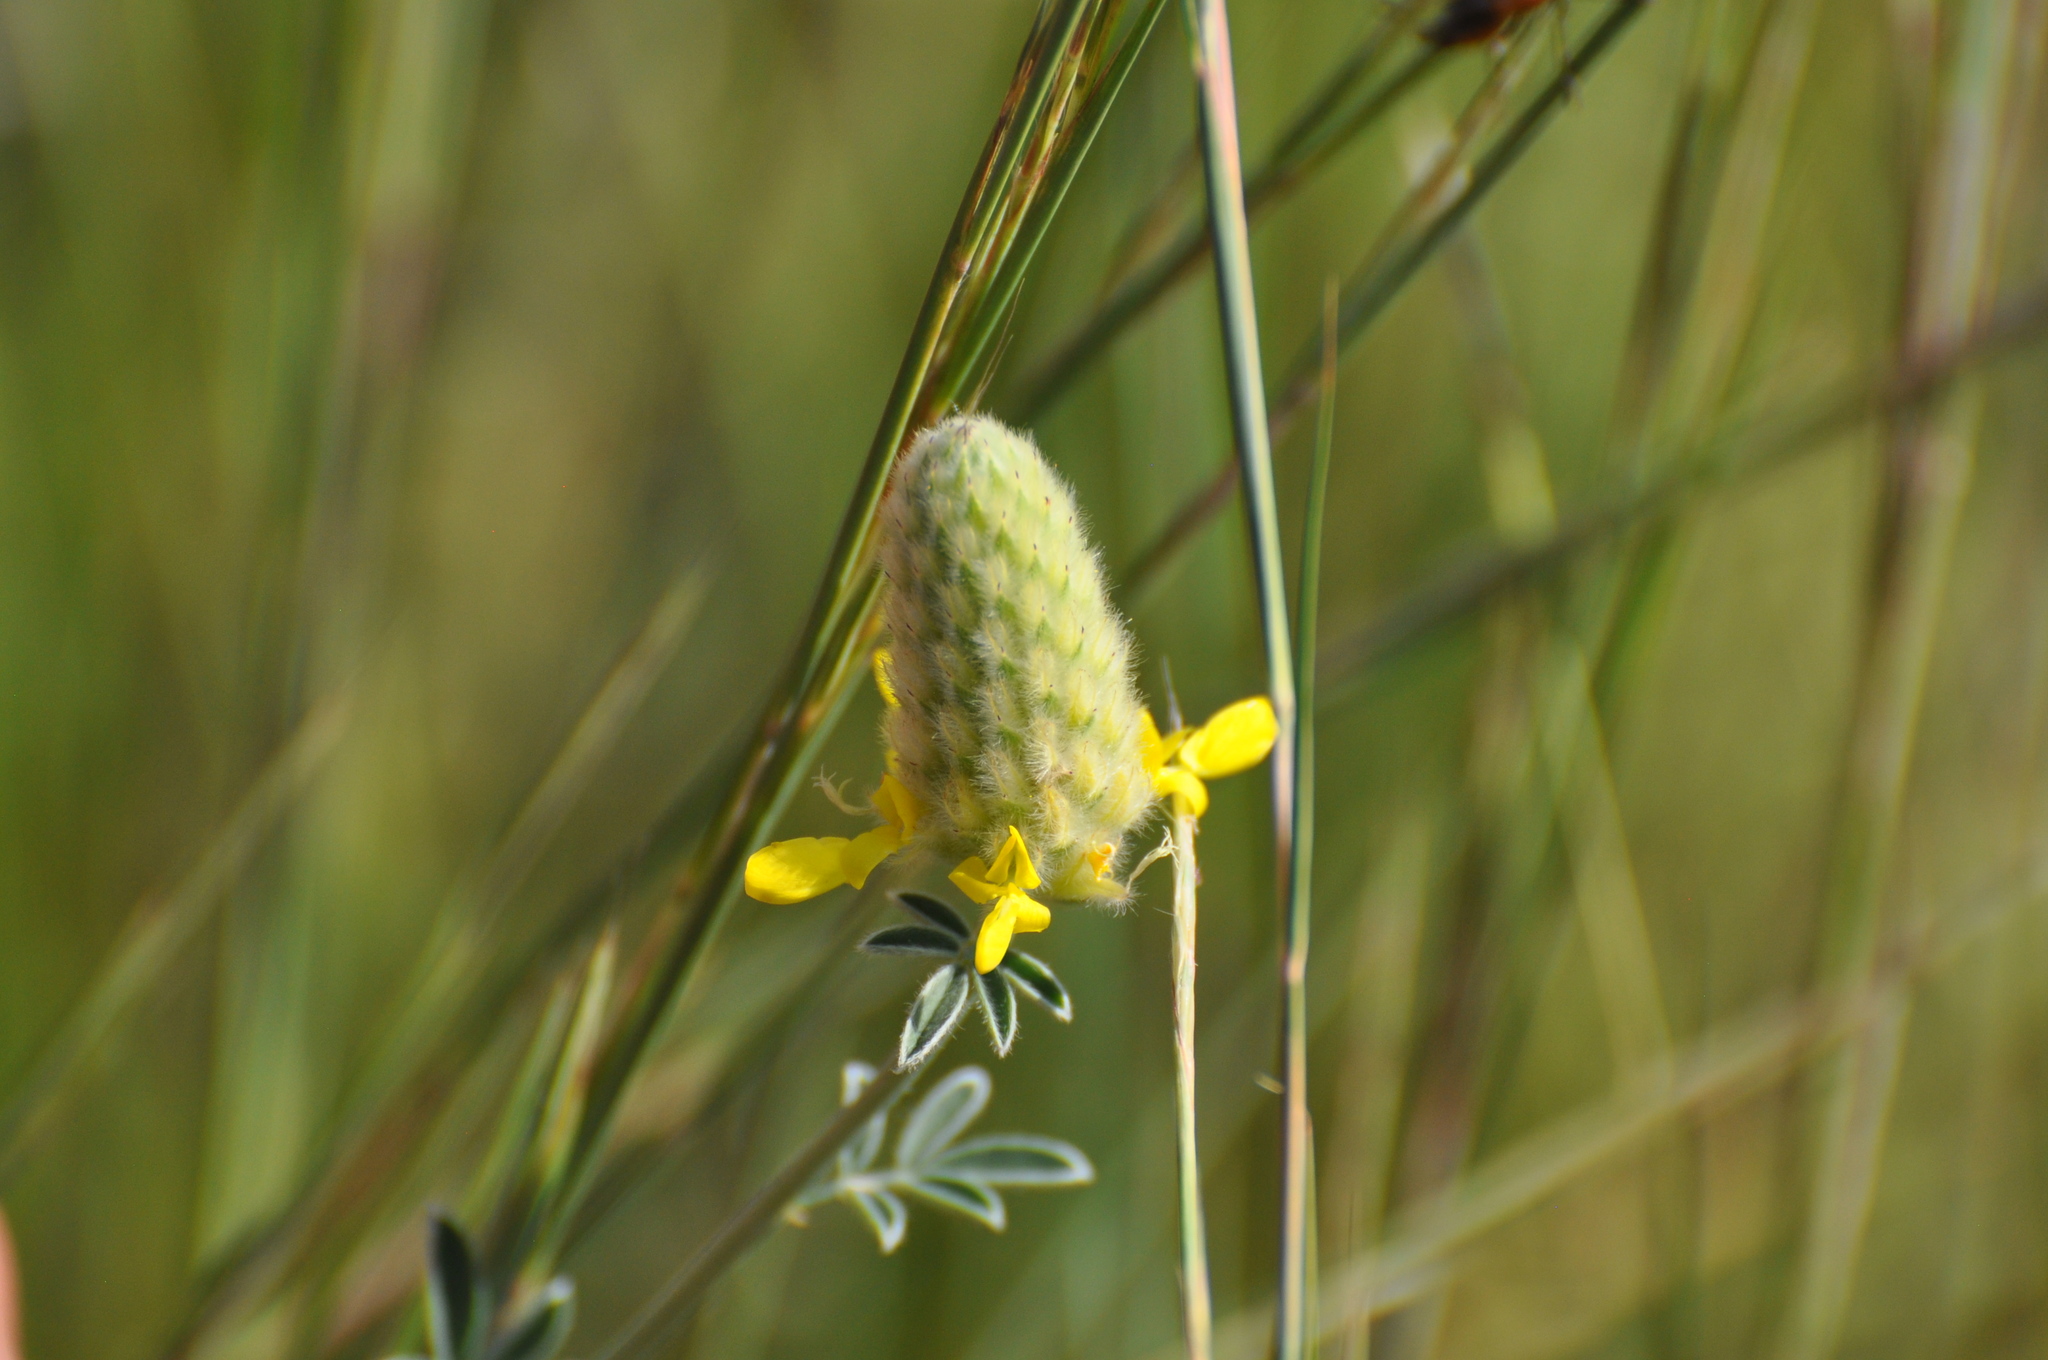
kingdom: Plantae
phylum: Tracheophyta
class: Magnoliopsida
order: Fabales
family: Fabaceae
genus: Dalea
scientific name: Dalea aurea
